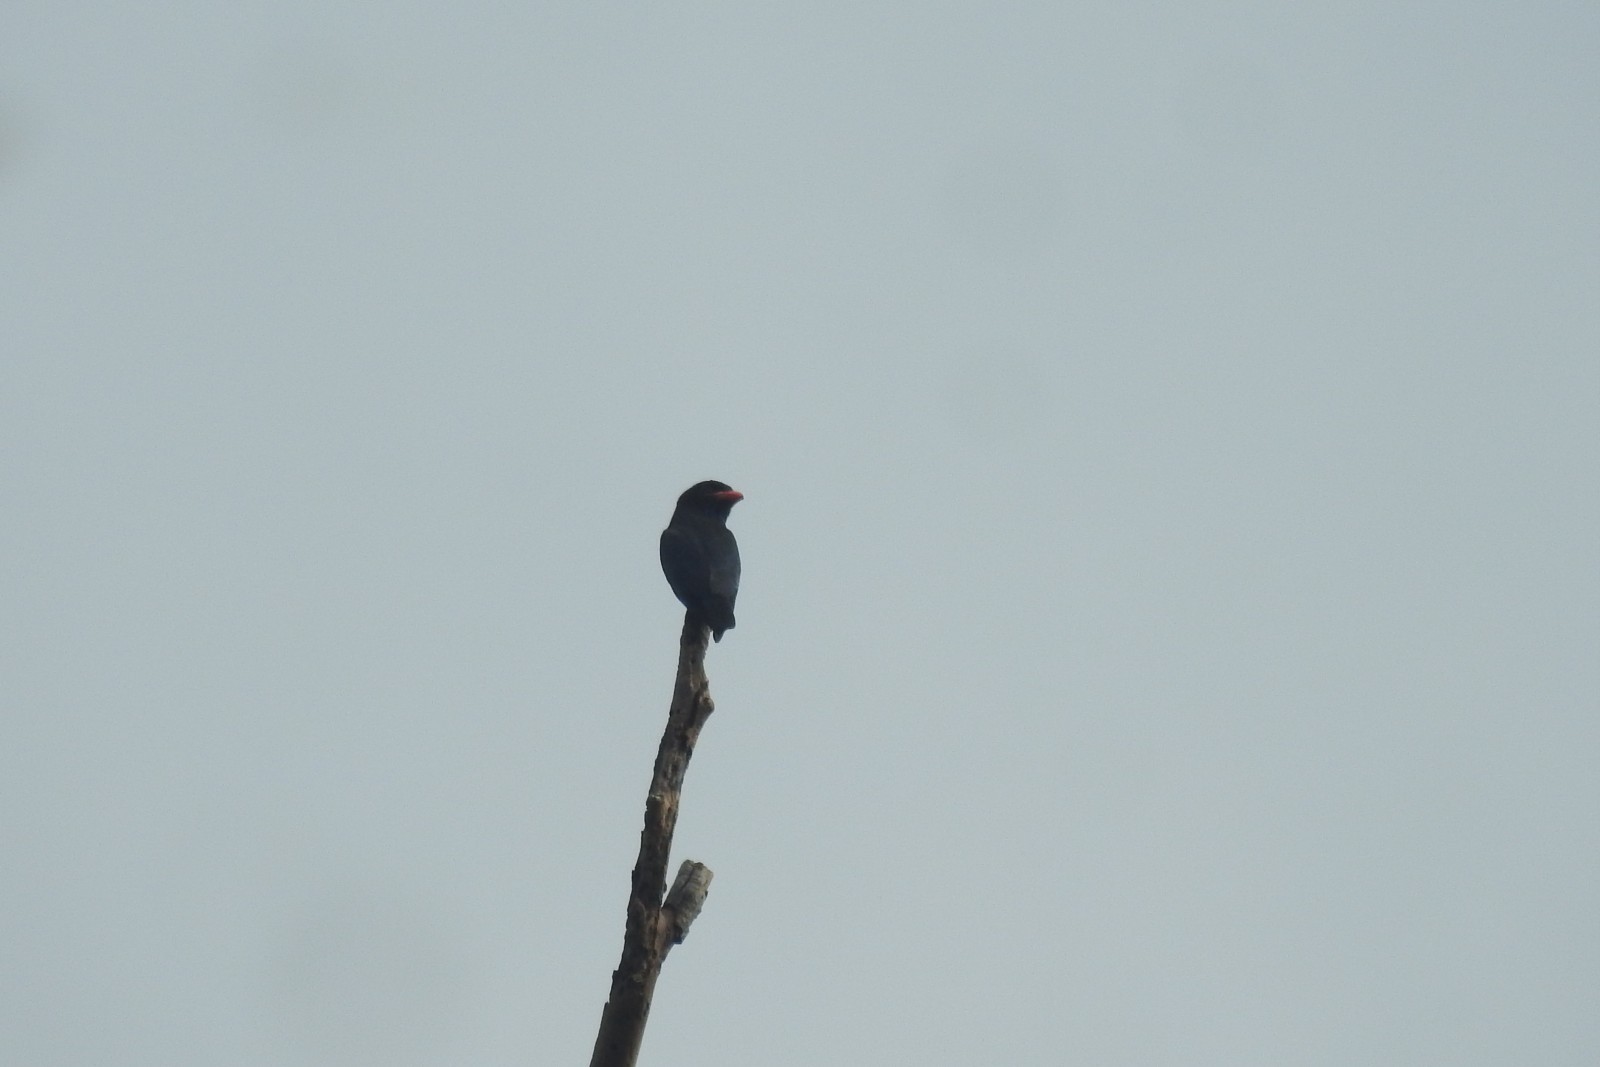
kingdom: Animalia
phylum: Chordata
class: Aves
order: Coraciiformes
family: Coraciidae
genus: Eurystomus
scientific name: Eurystomus orientalis
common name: Oriental dollarbird
